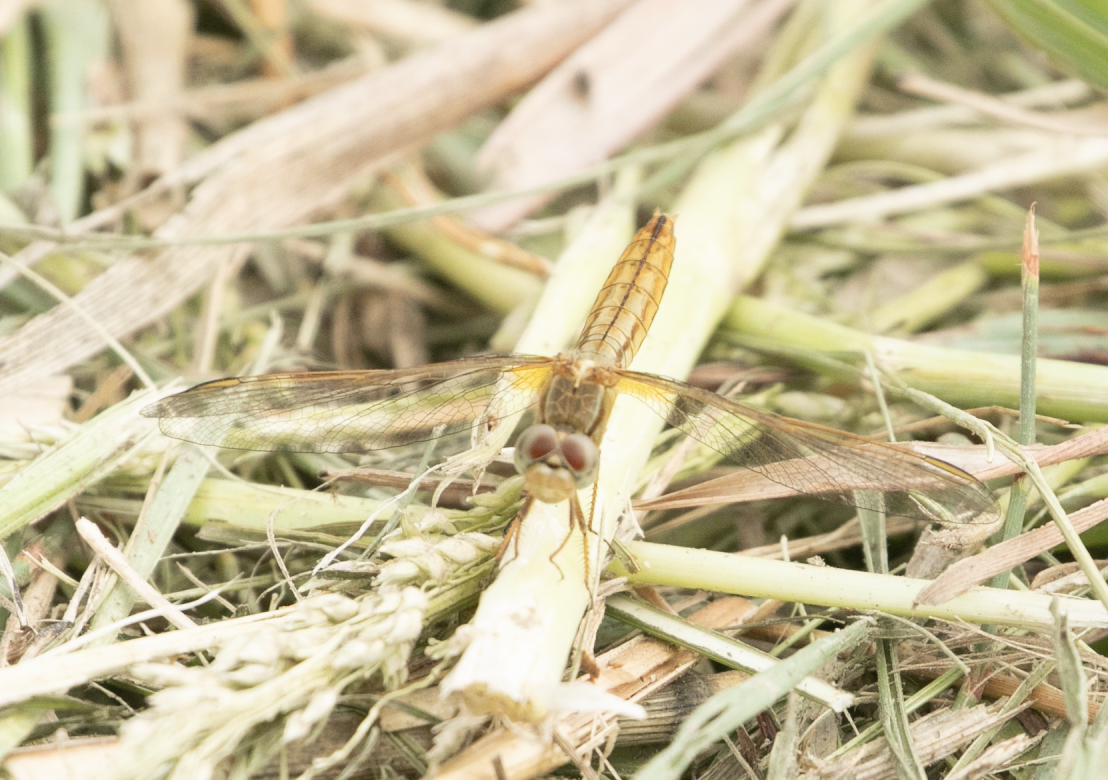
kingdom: Animalia
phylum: Arthropoda
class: Insecta
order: Odonata
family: Libellulidae
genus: Crocothemis
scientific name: Crocothemis erythraea
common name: Scarlet dragonfly
